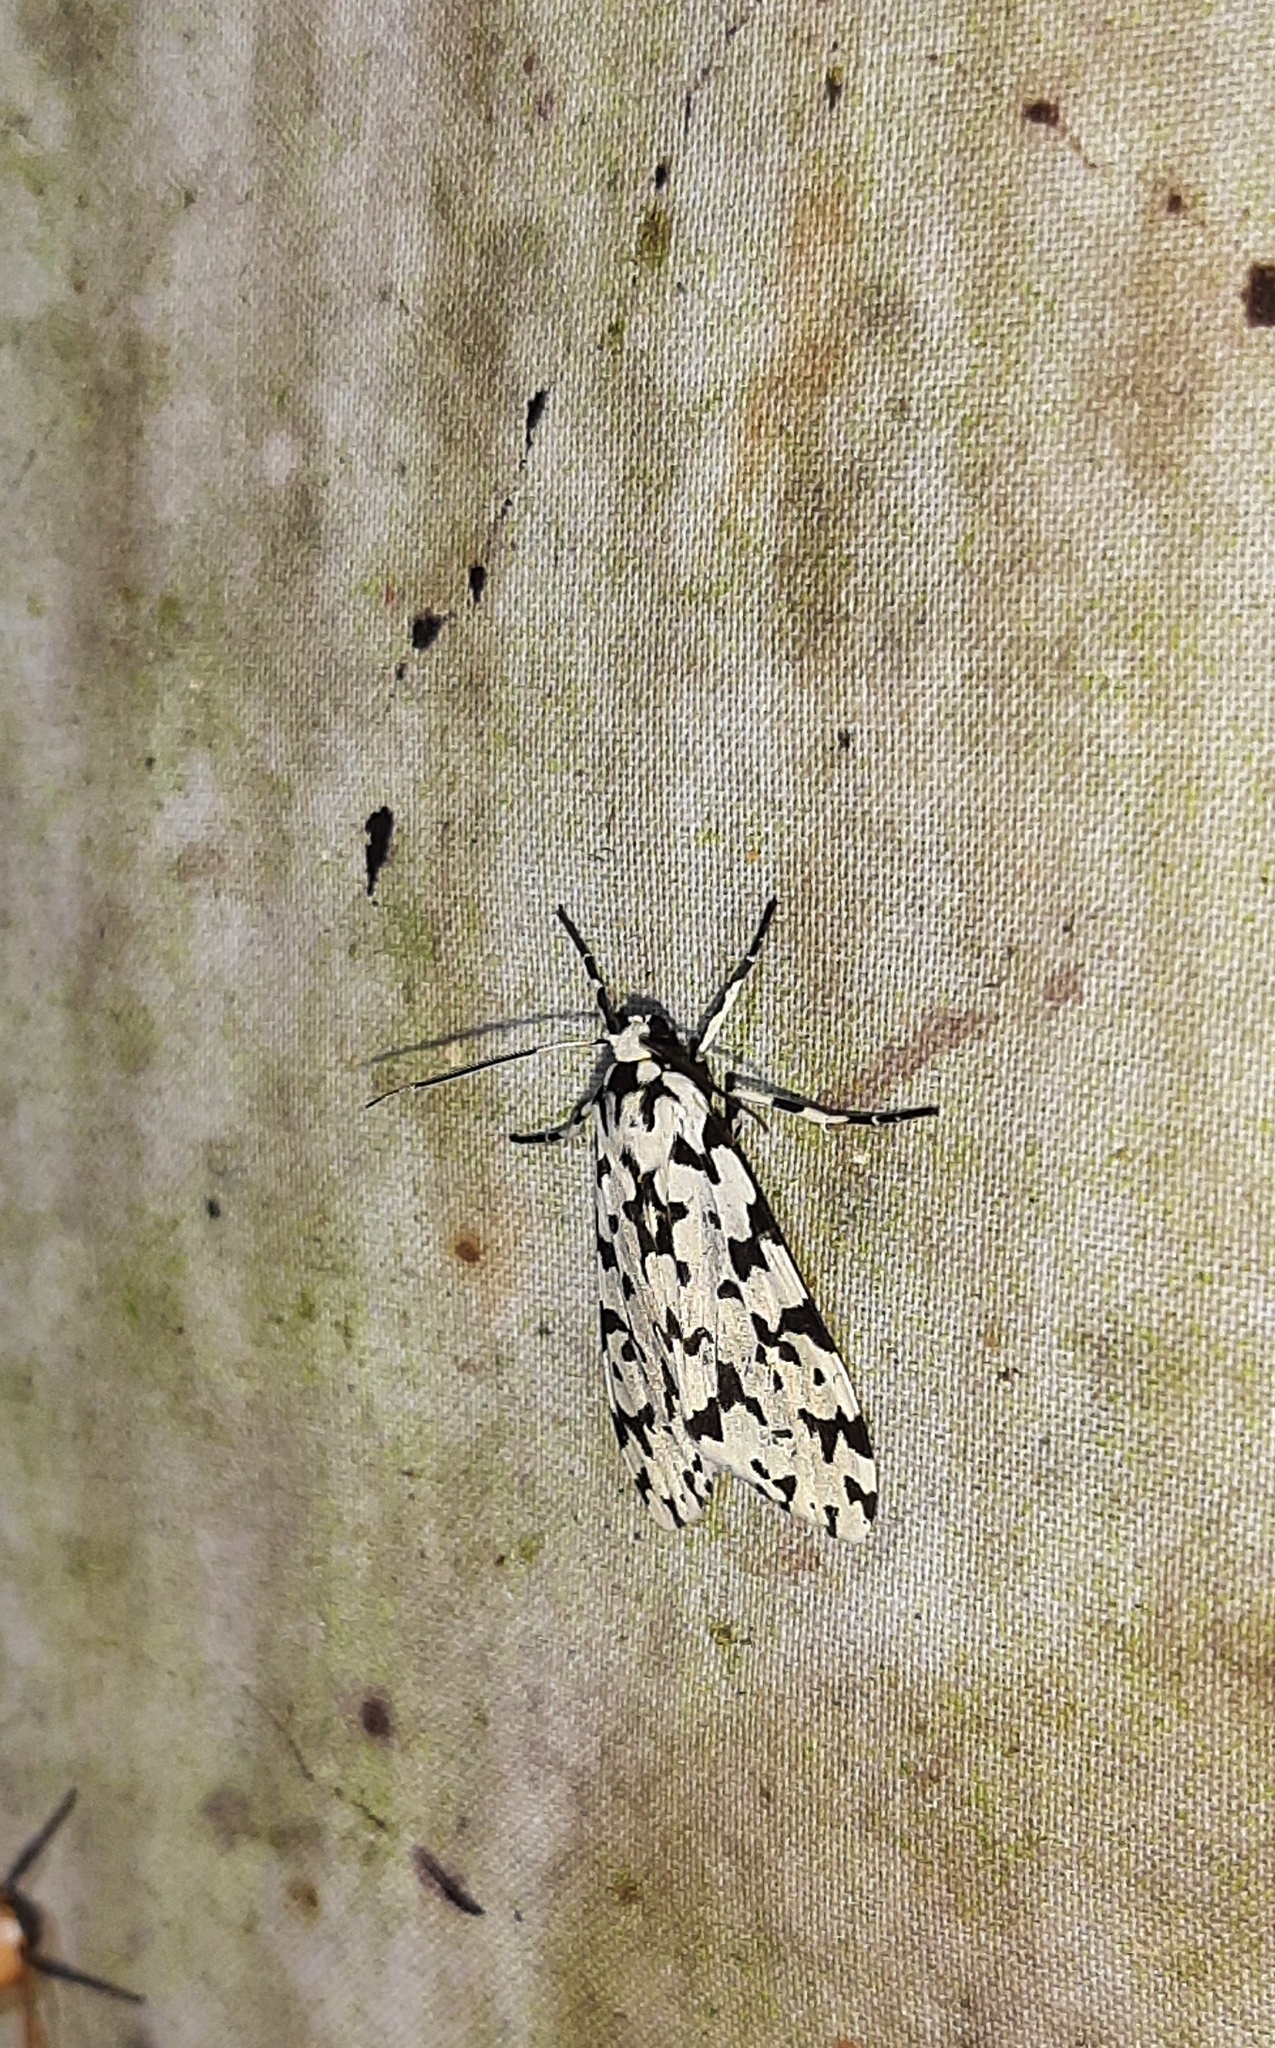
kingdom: Animalia
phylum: Arthropoda
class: Insecta
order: Lepidoptera
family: Erebidae
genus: Eucereon
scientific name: Eucereon tigrata
